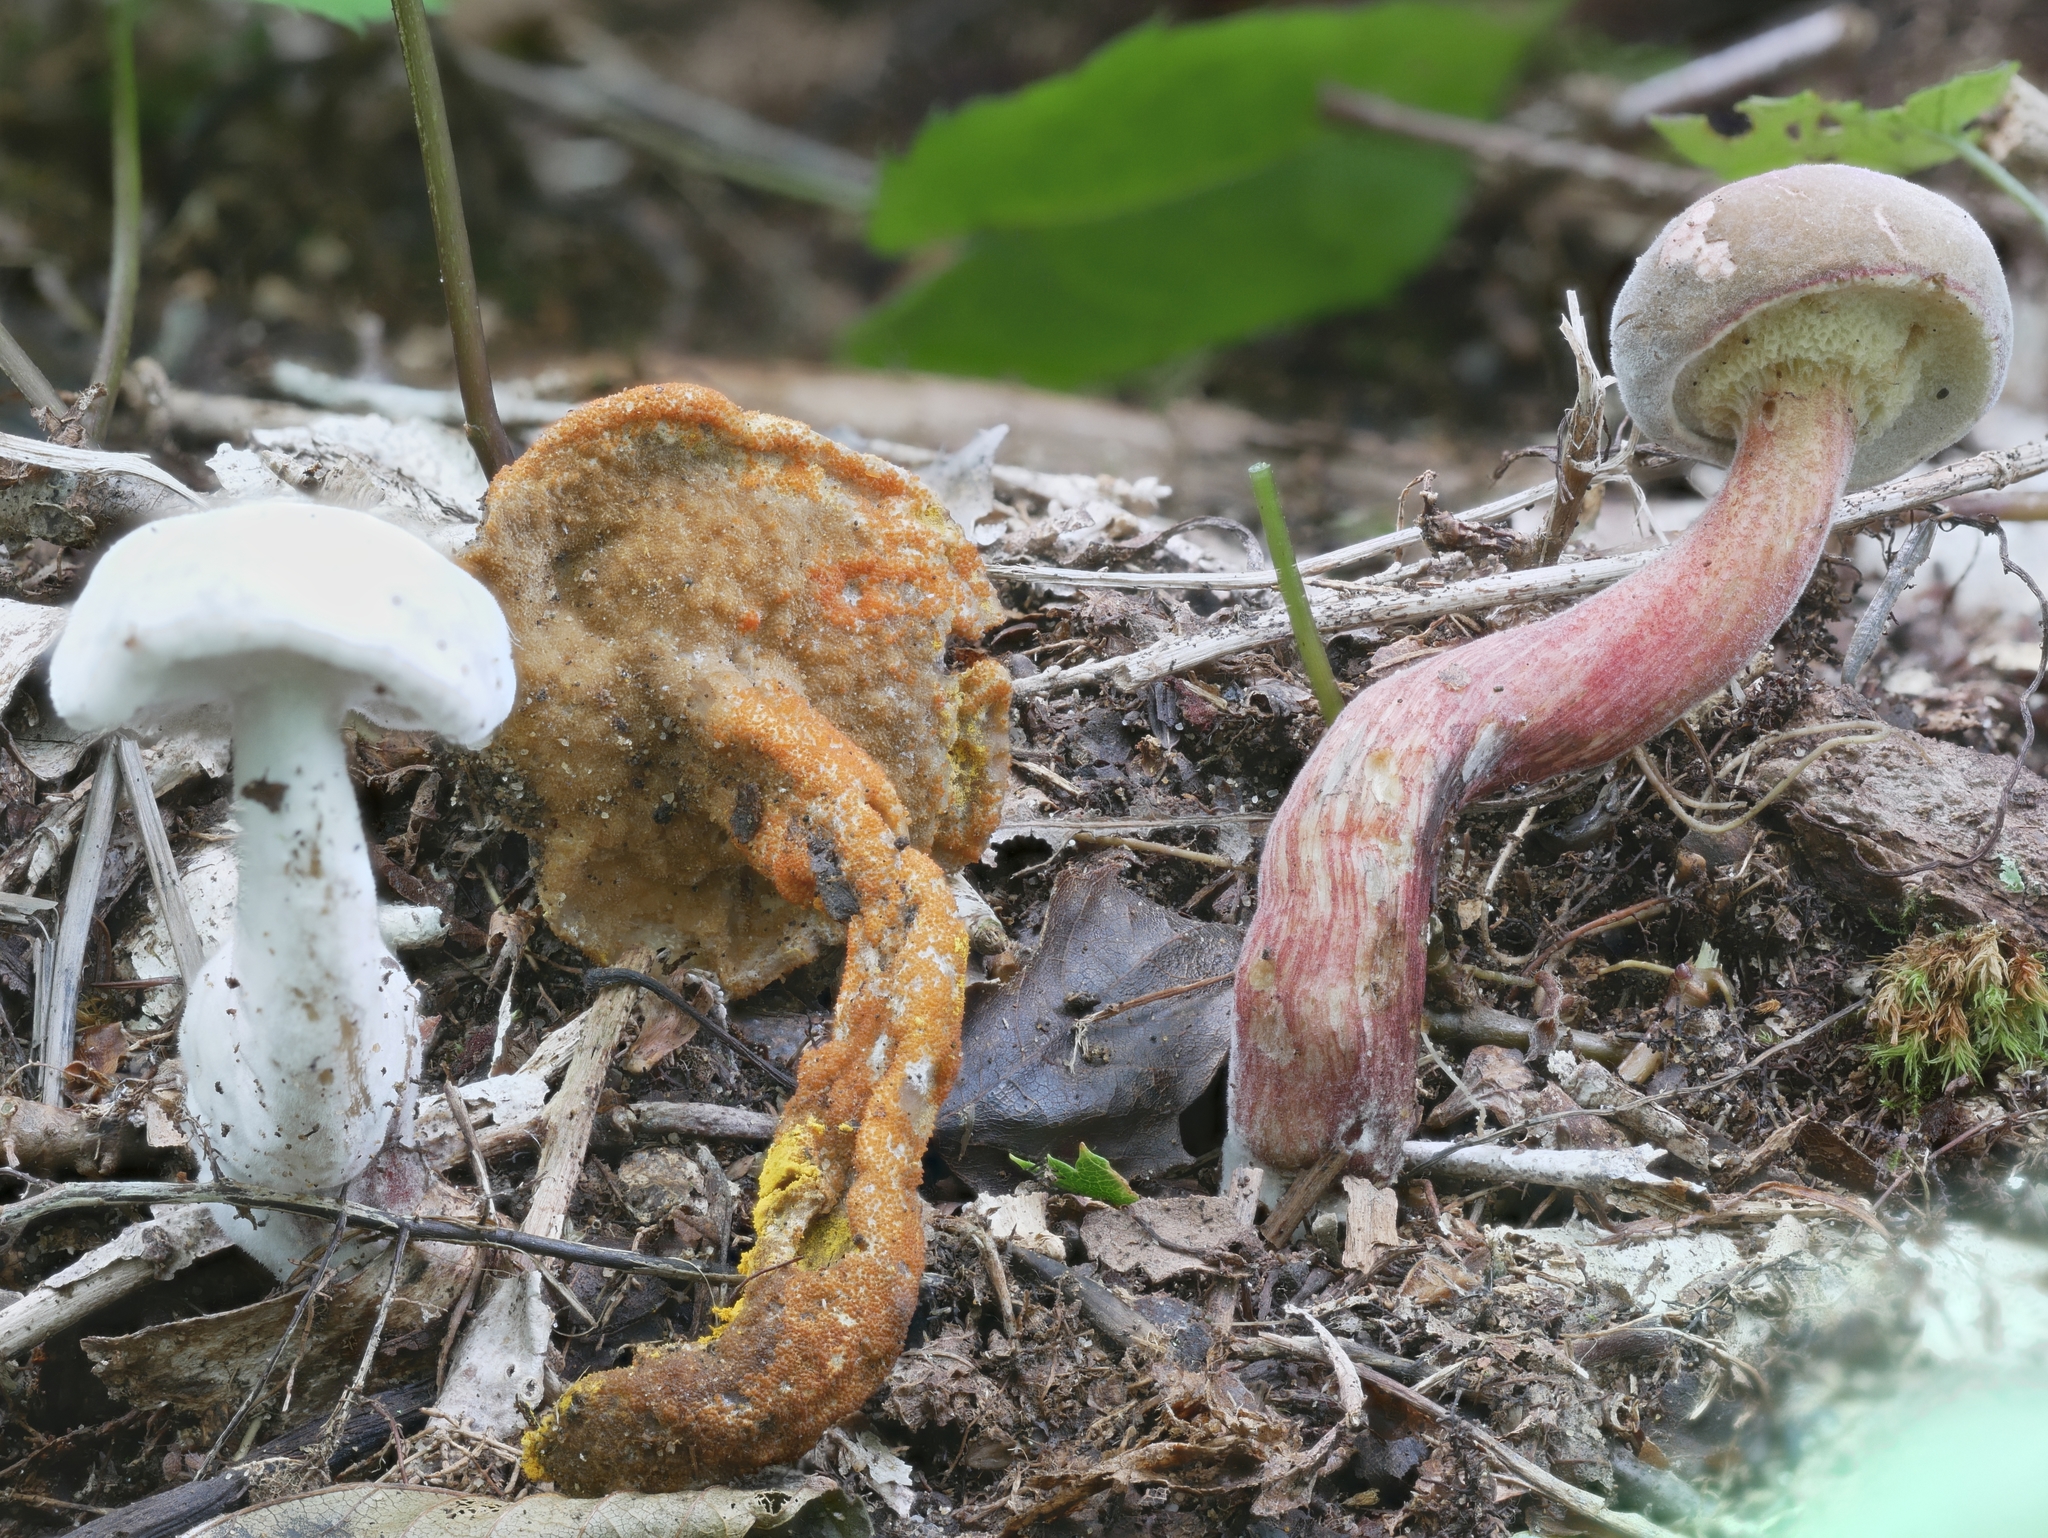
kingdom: Fungi
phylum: Ascomycota
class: Sordariomycetes
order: Hypocreales
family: Hypocreaceae
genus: Hypomyces
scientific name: Hypomyces microspermus
